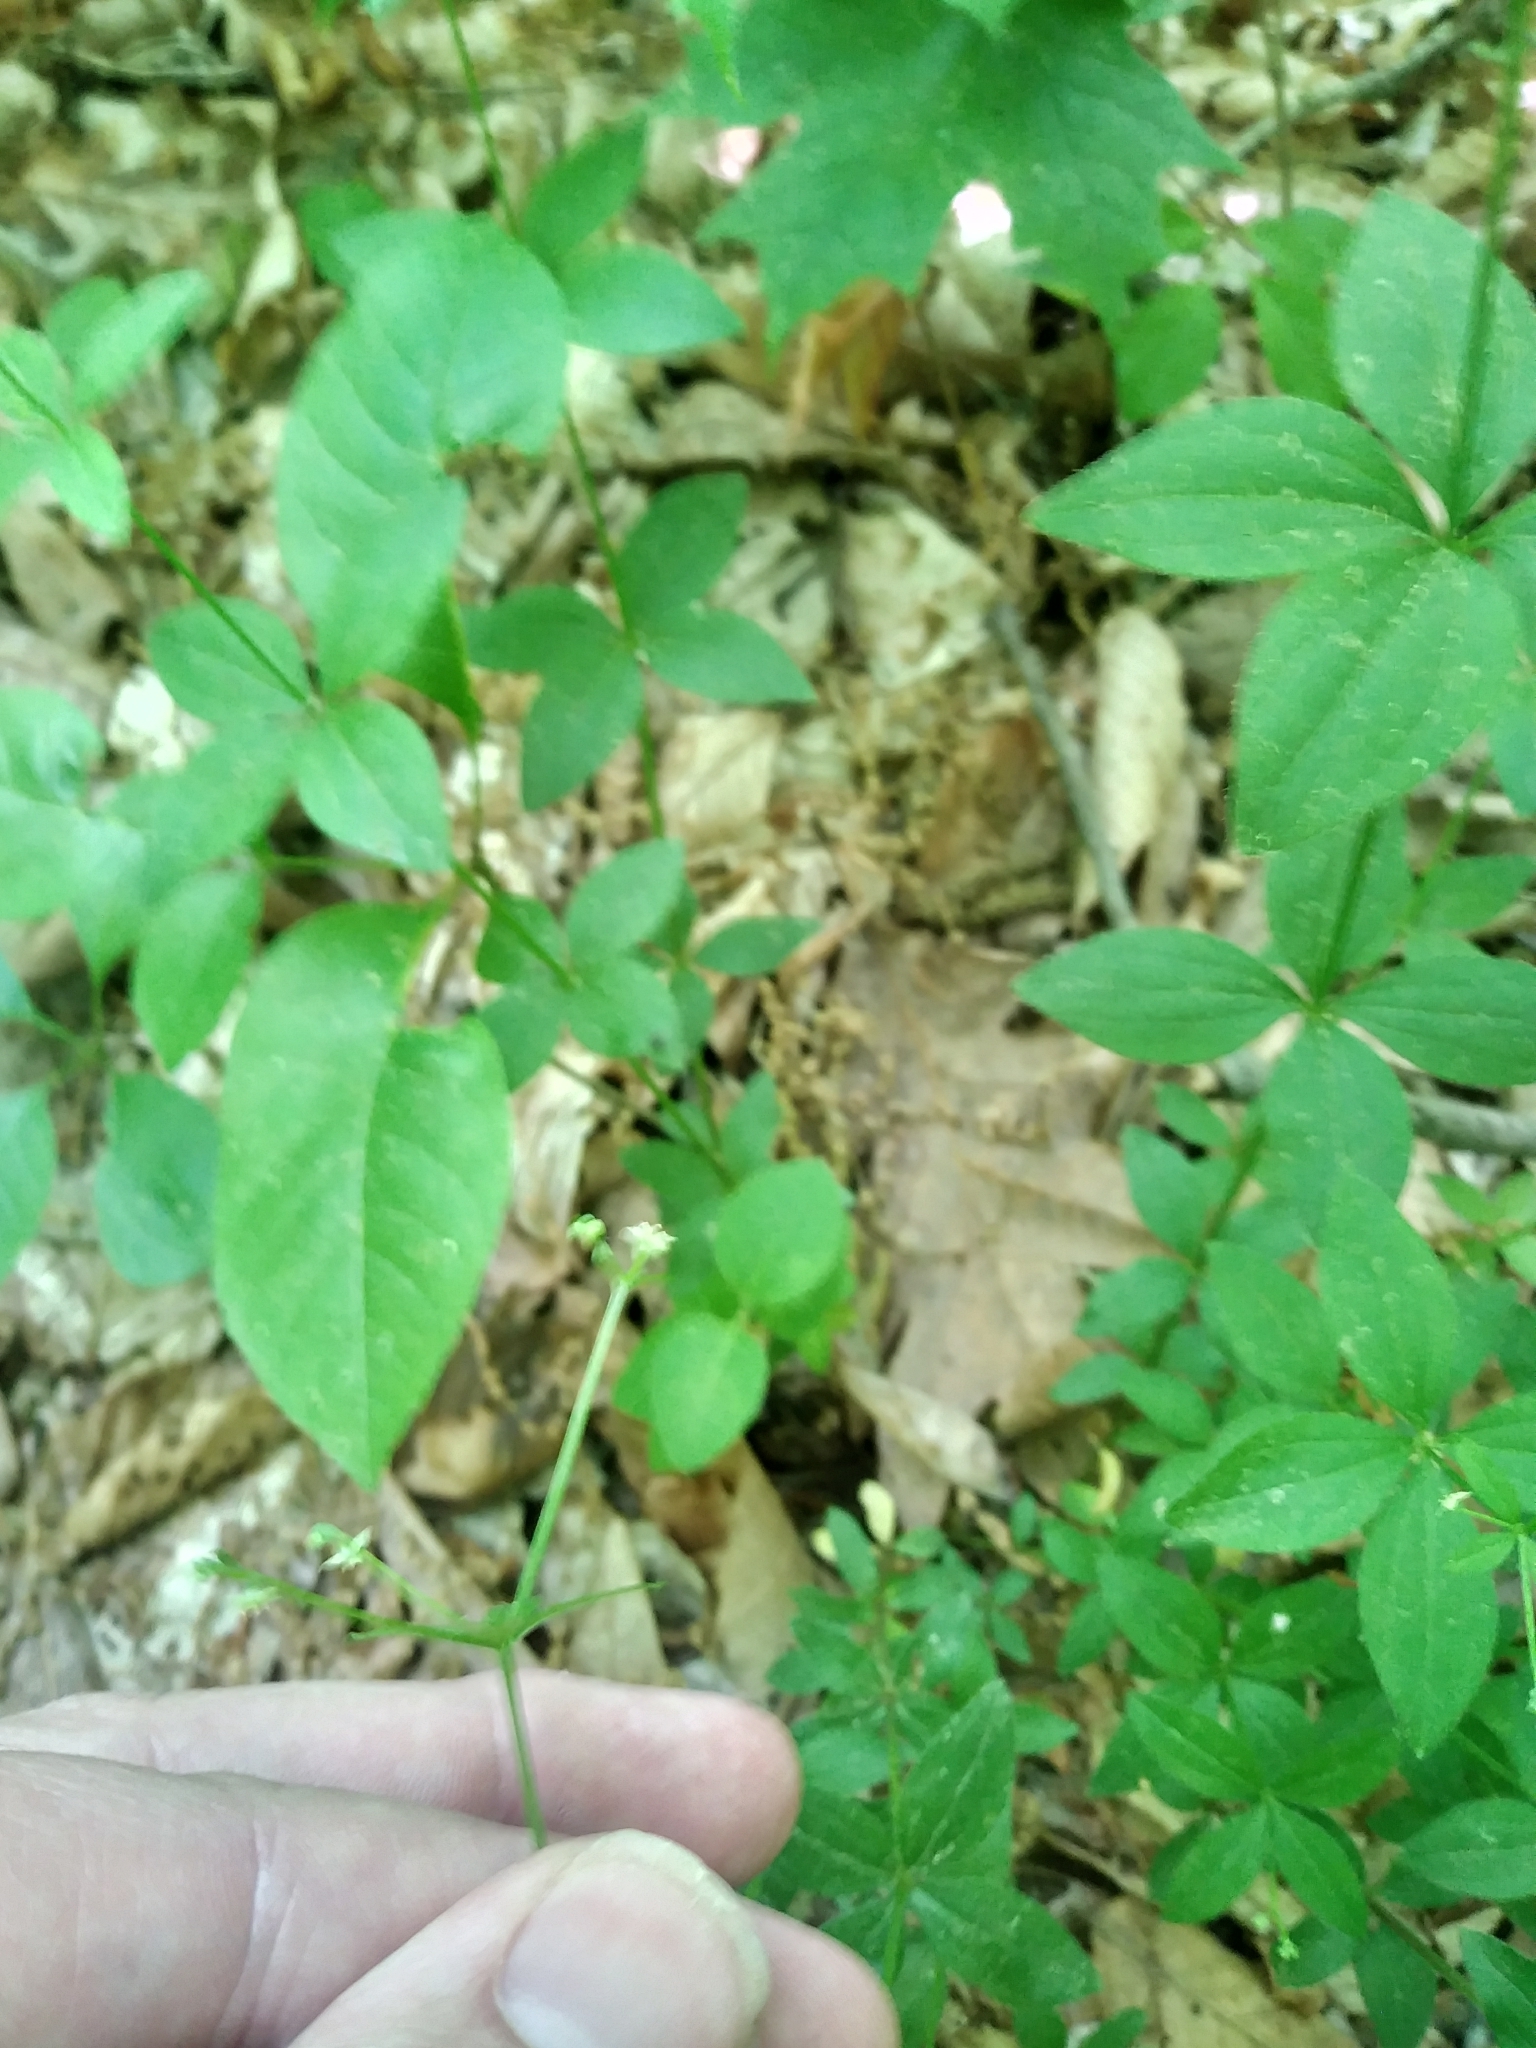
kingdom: Plantae
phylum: Tracheophyta
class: Magnoliopsida
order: Gentianales
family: Rubiaceae
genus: Galium
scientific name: Galium circaezans
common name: Forest bedstraw
